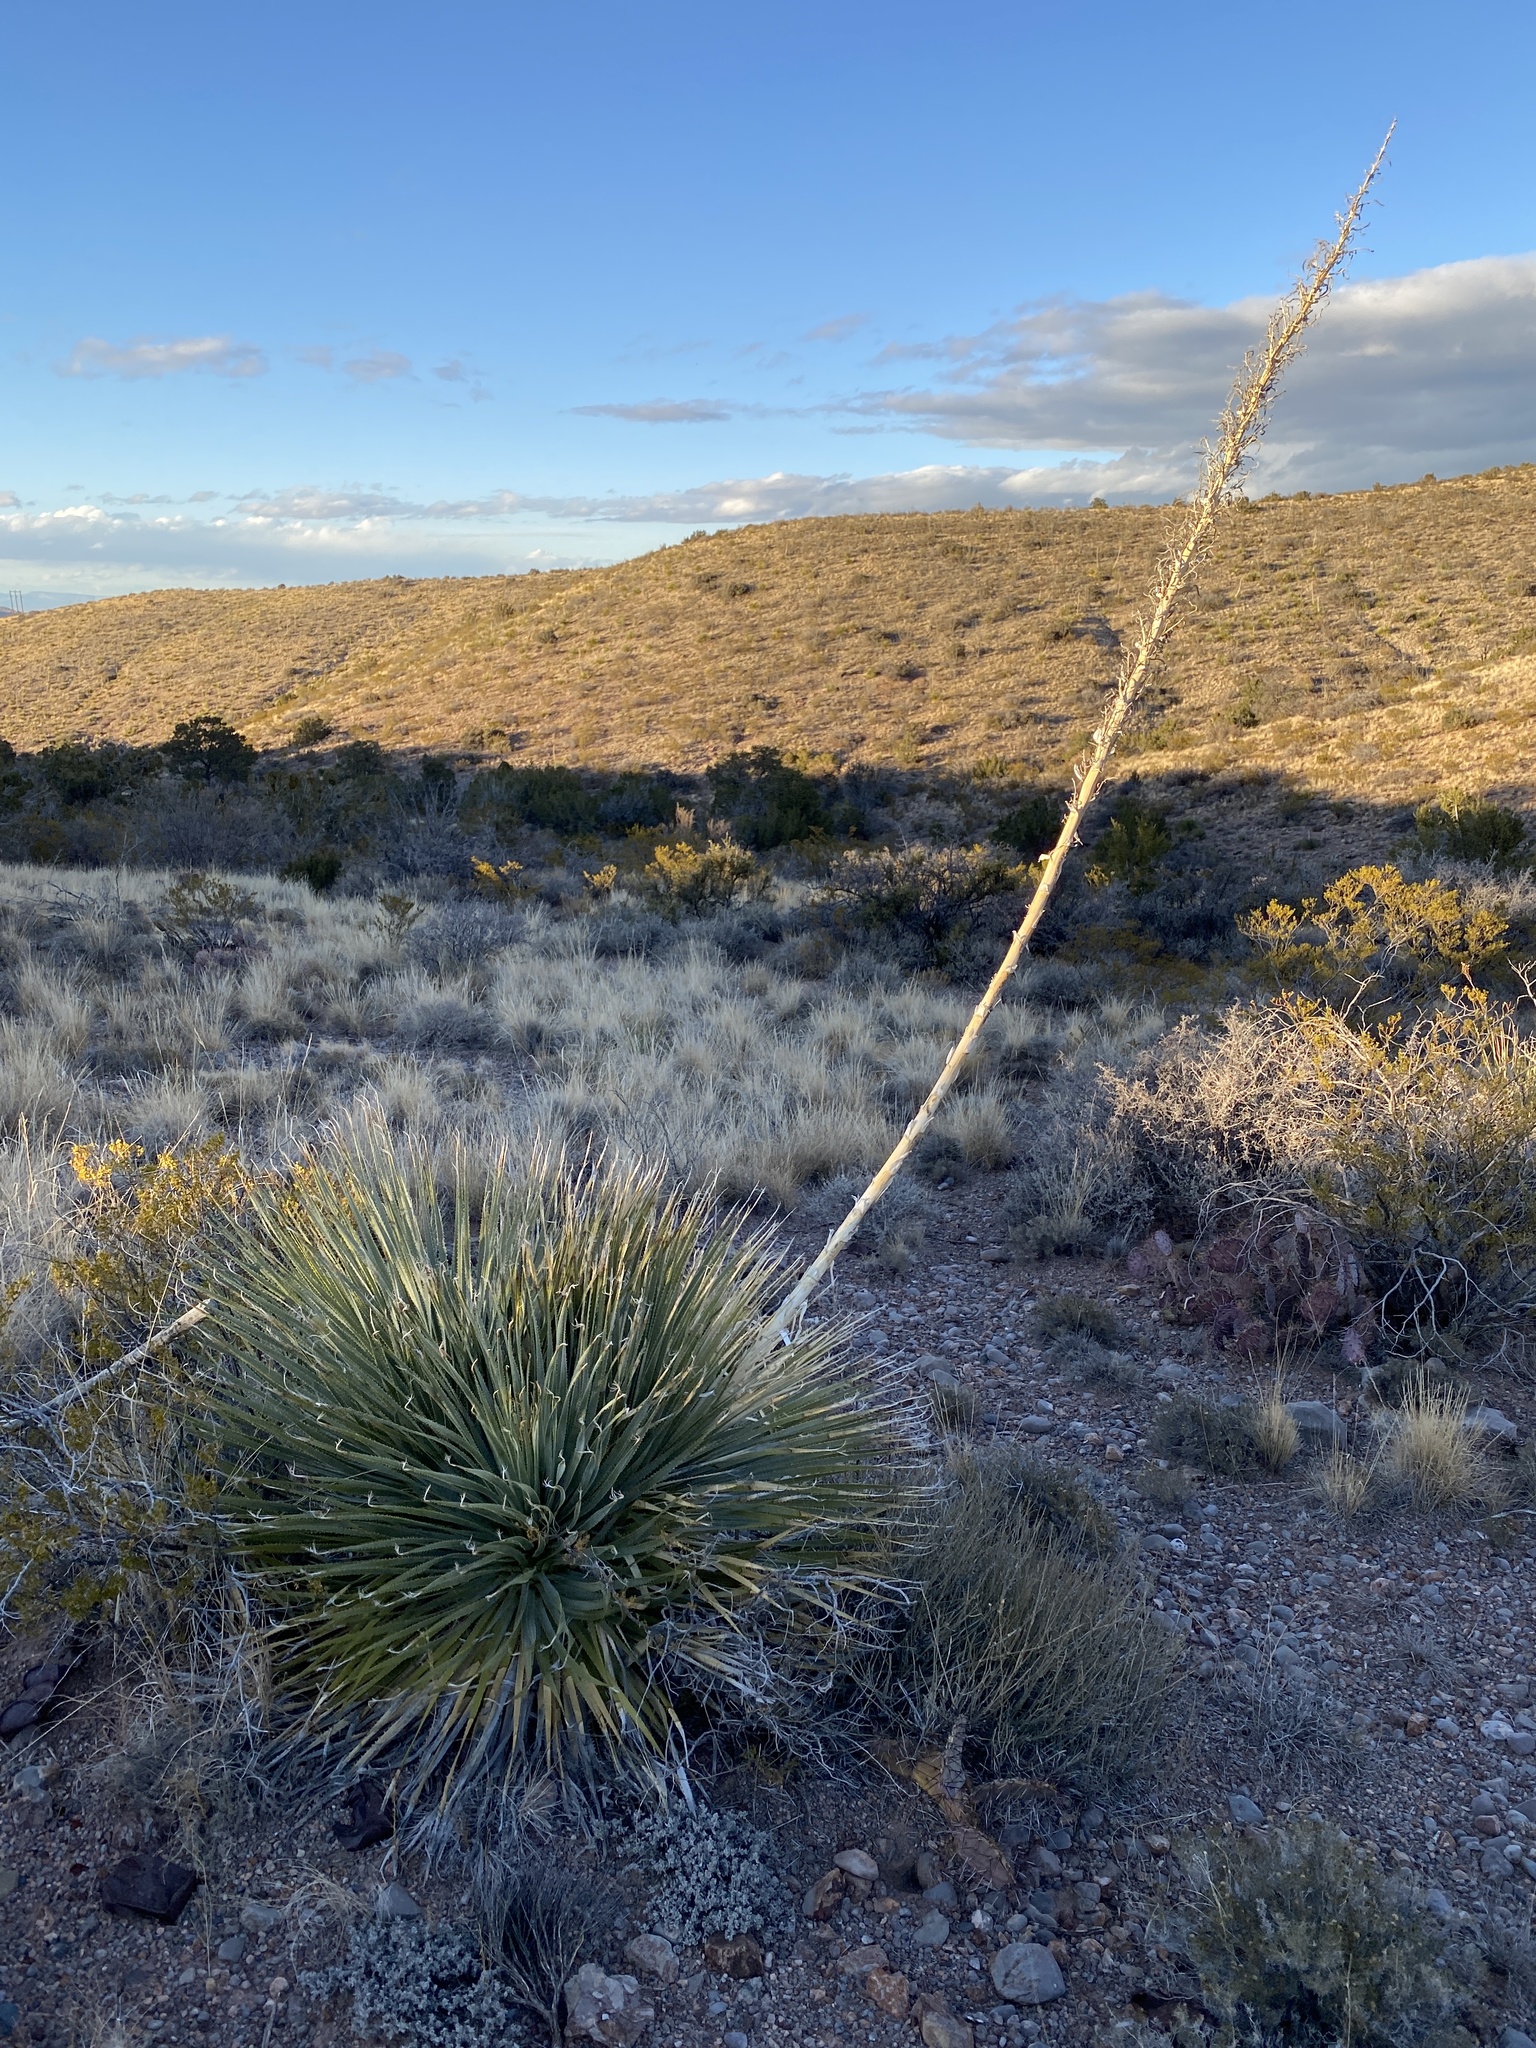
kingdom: Plantae
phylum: Tracheophyta
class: Liliopsida
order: Asparagales
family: Asparagaceae
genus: Dasylirion
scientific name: Dasylirion wheeleri
